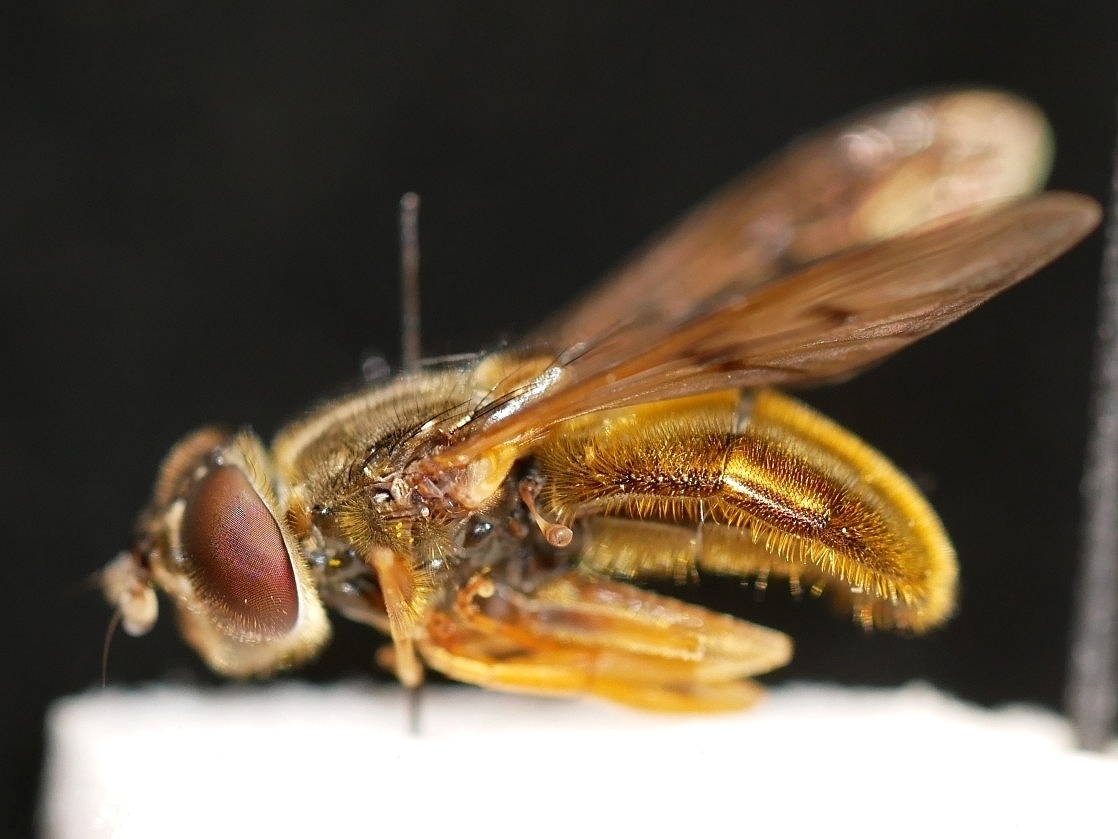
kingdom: Animalia
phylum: Arthropoda
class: Insecta
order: Diptera
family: Syrphidae
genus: Ferdinandea
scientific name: Ferdinandea croesus
